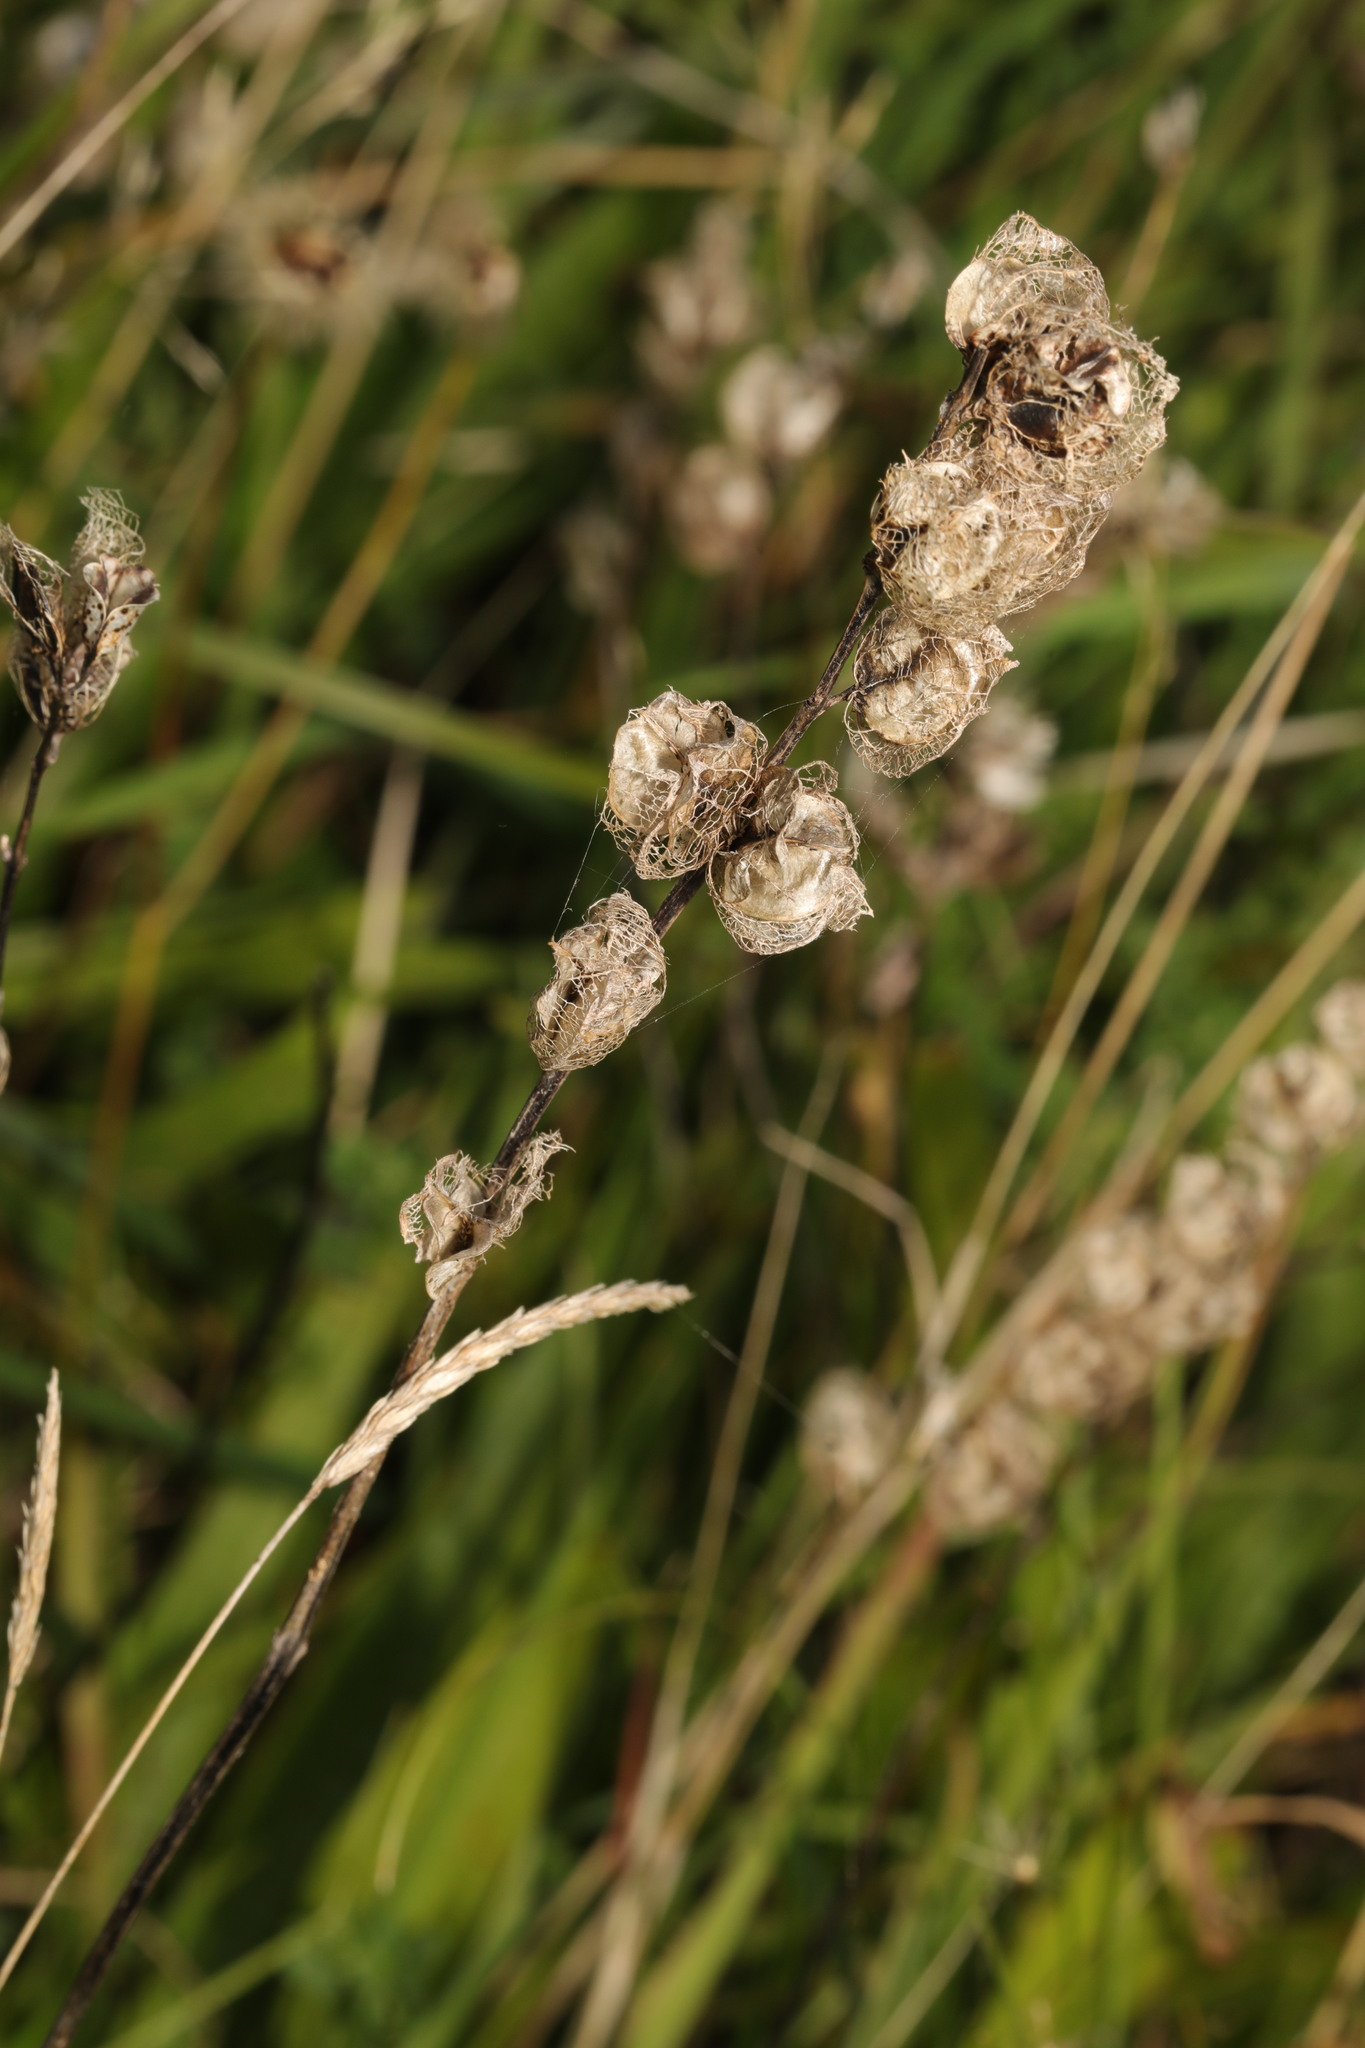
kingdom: Plantae
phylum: Tracheophyta
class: Magnoliopsida
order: Lamiales
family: Orobanchaceae
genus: Rhinanthus
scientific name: Rhinanthus minor
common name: Yellow-rattle
